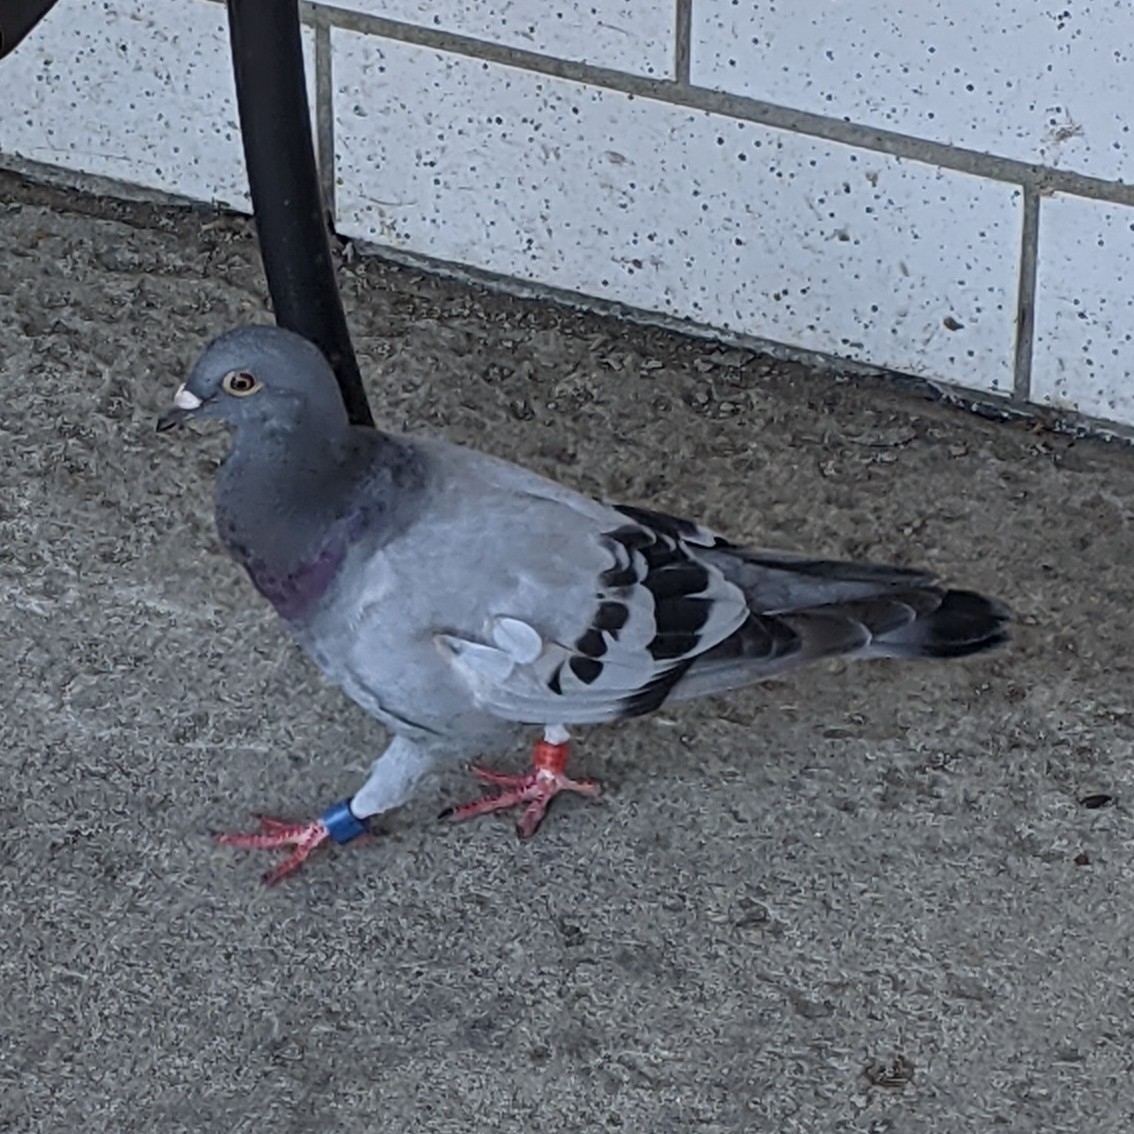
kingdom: Animalia
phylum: Chordata
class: Aves
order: Columbiformes
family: Columbidae
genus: Columba
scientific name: Columba livia
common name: Rock pigeon
